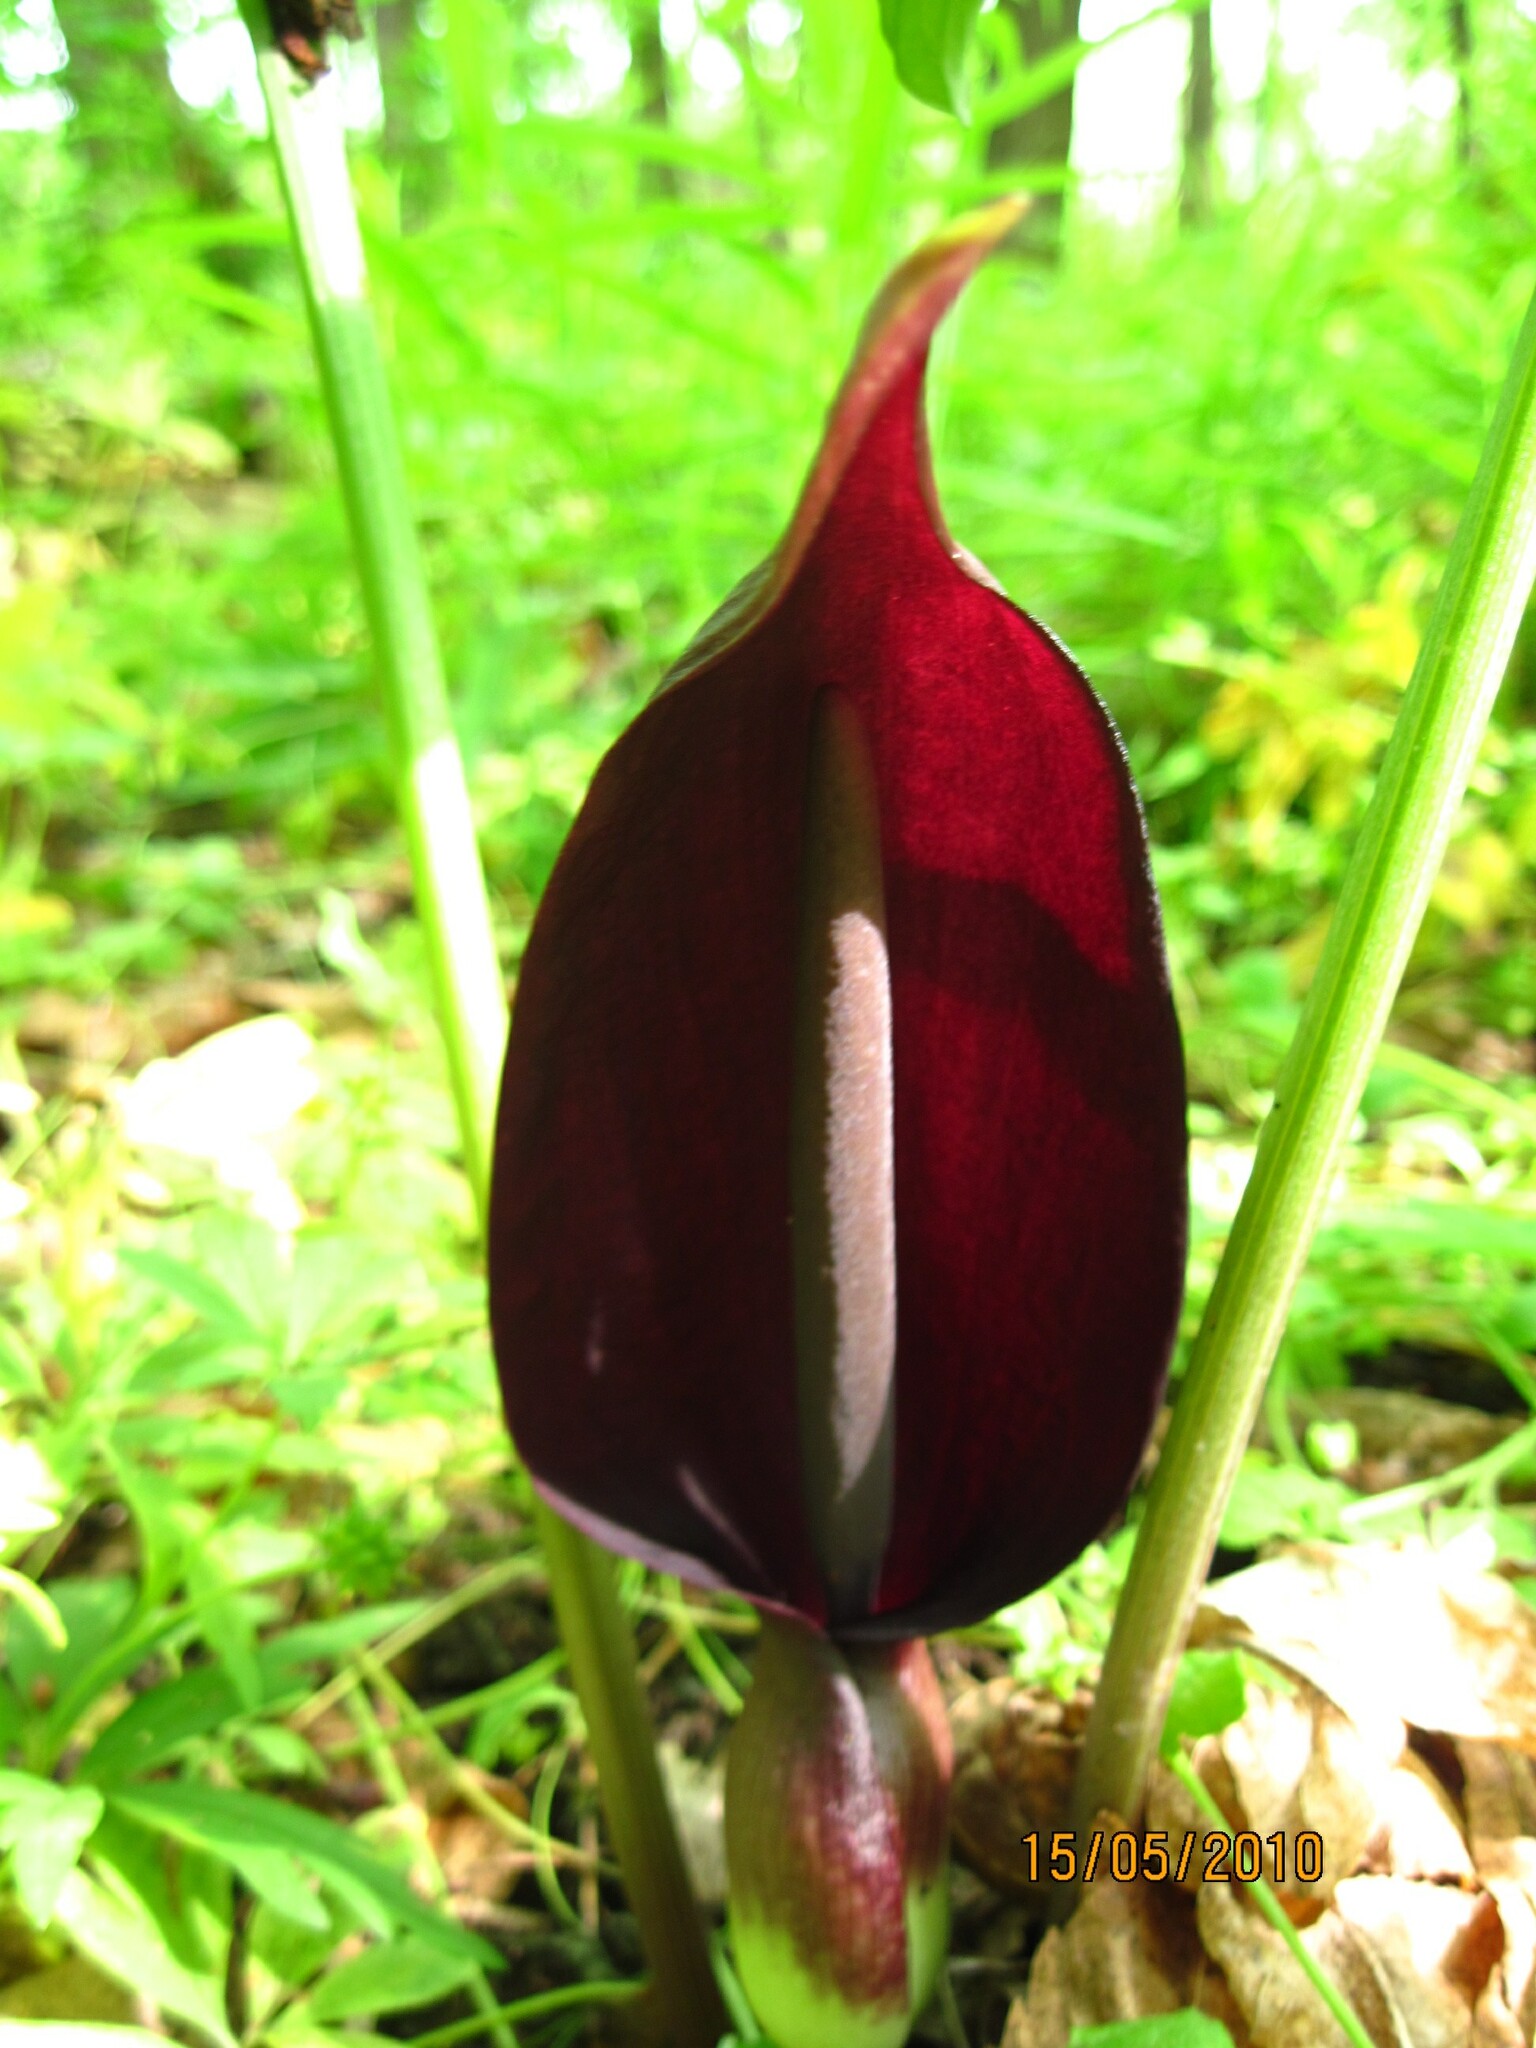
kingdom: Plantae
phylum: Tracheophyta
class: Liliopsida
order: Alismatales
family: Araceae
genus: Arum
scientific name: Arum orientale
